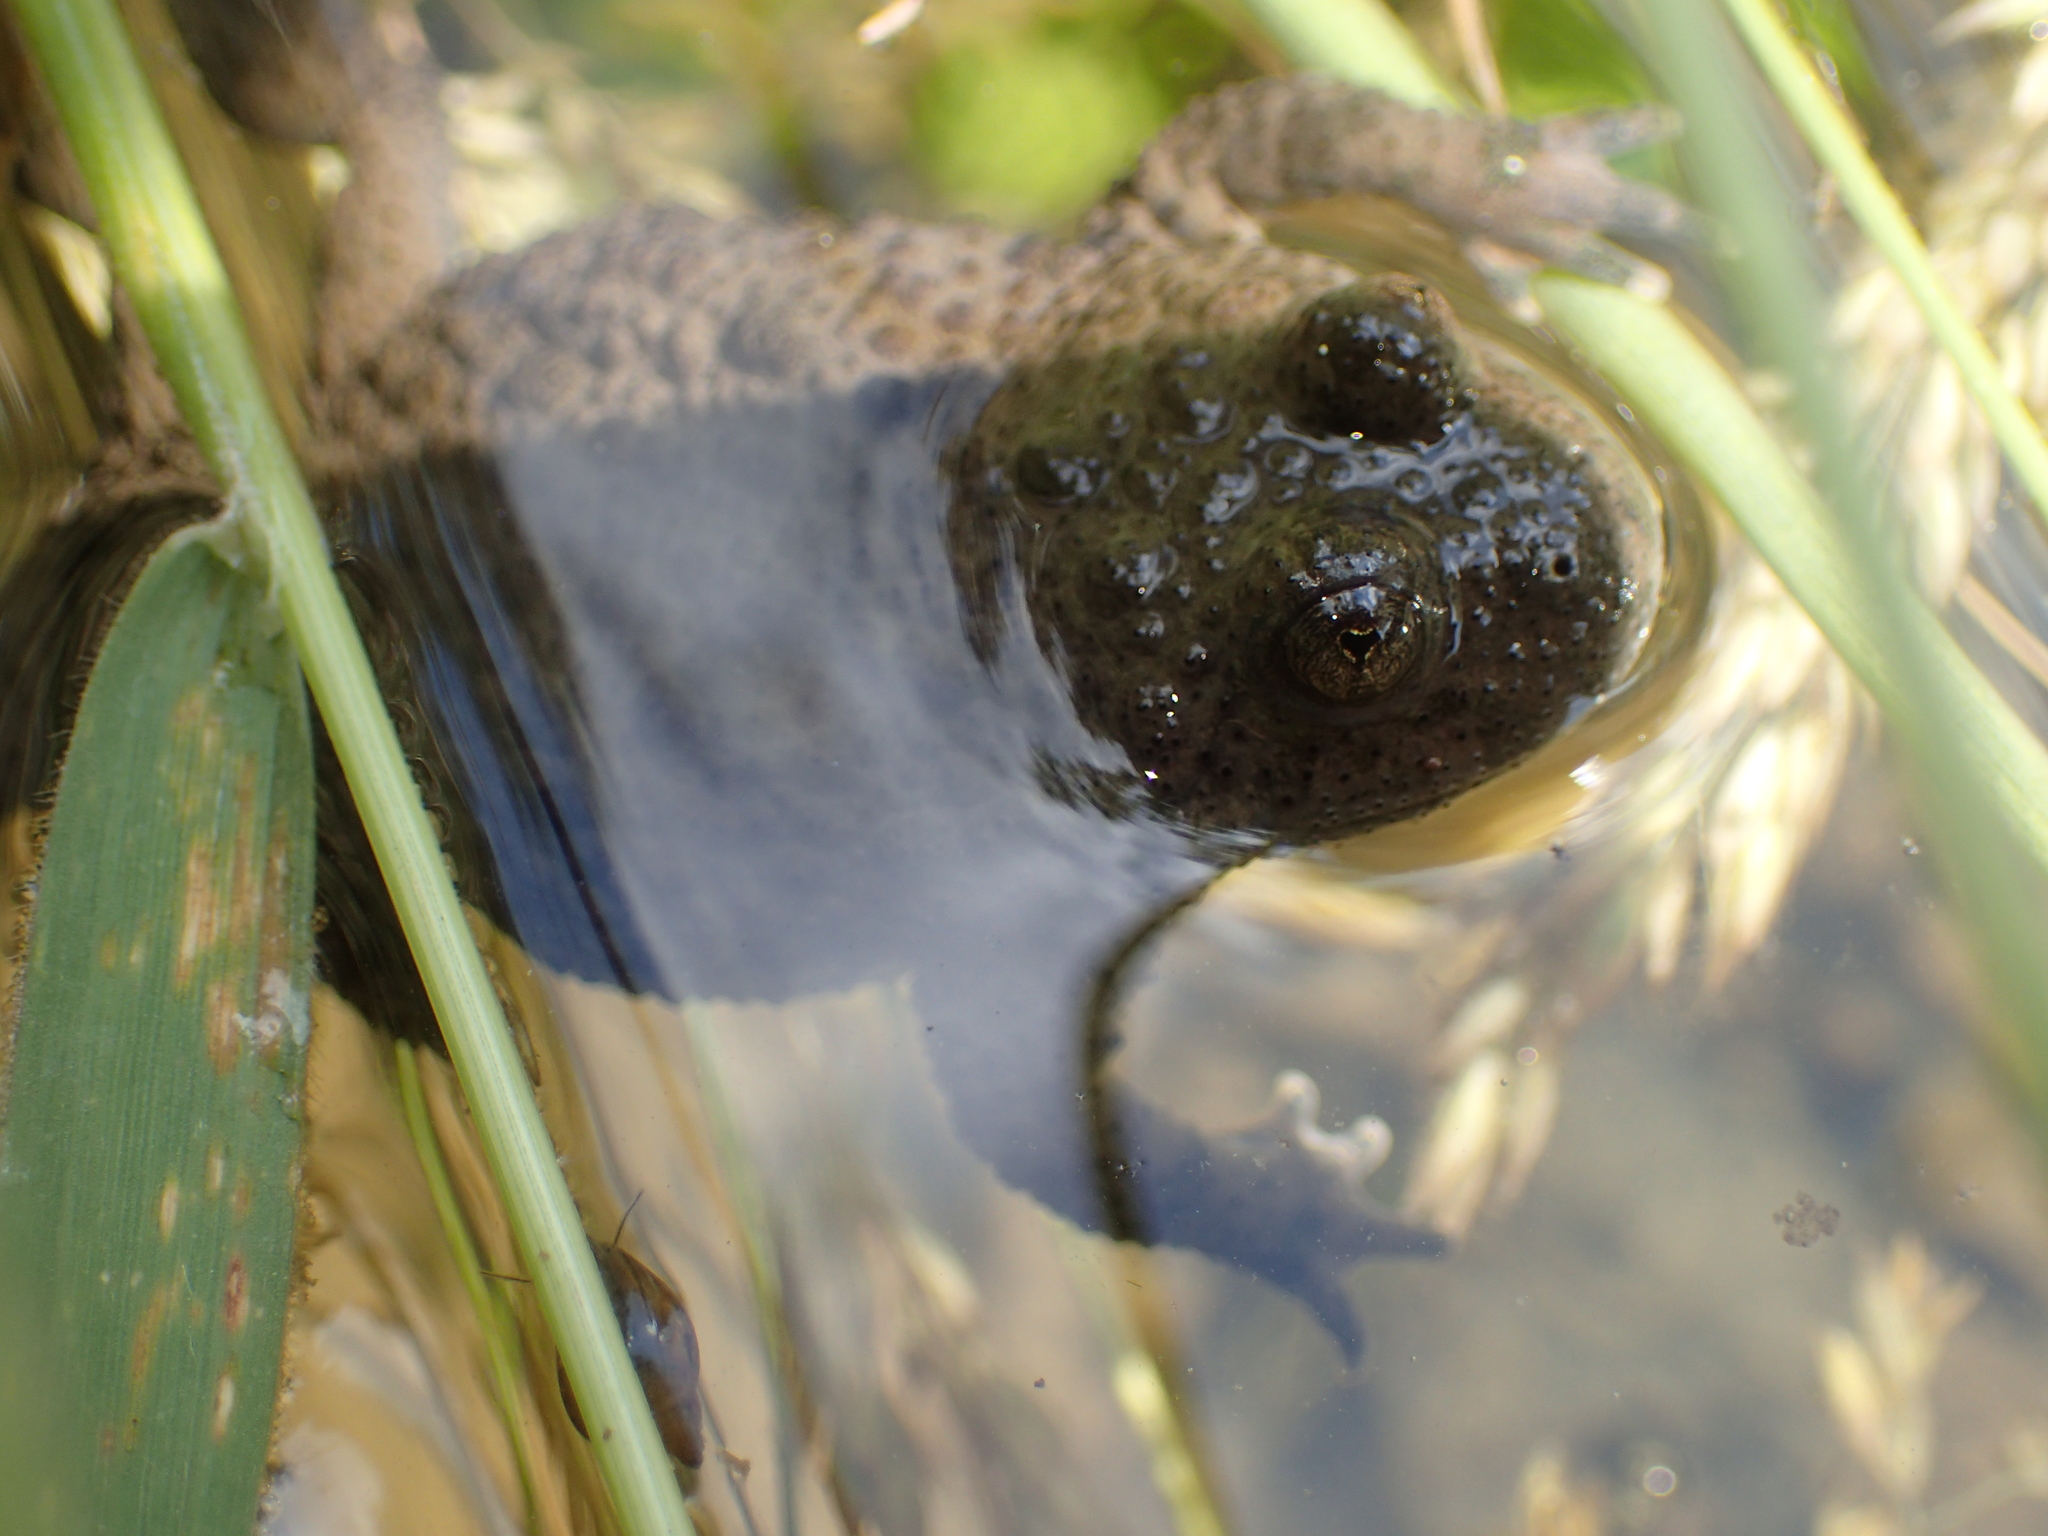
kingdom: Animalia
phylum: Chordata
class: Amphibia
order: Anura
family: Bombinatoridae
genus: Bombina
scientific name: Bombina variegata
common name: Yellow-bellied toad
